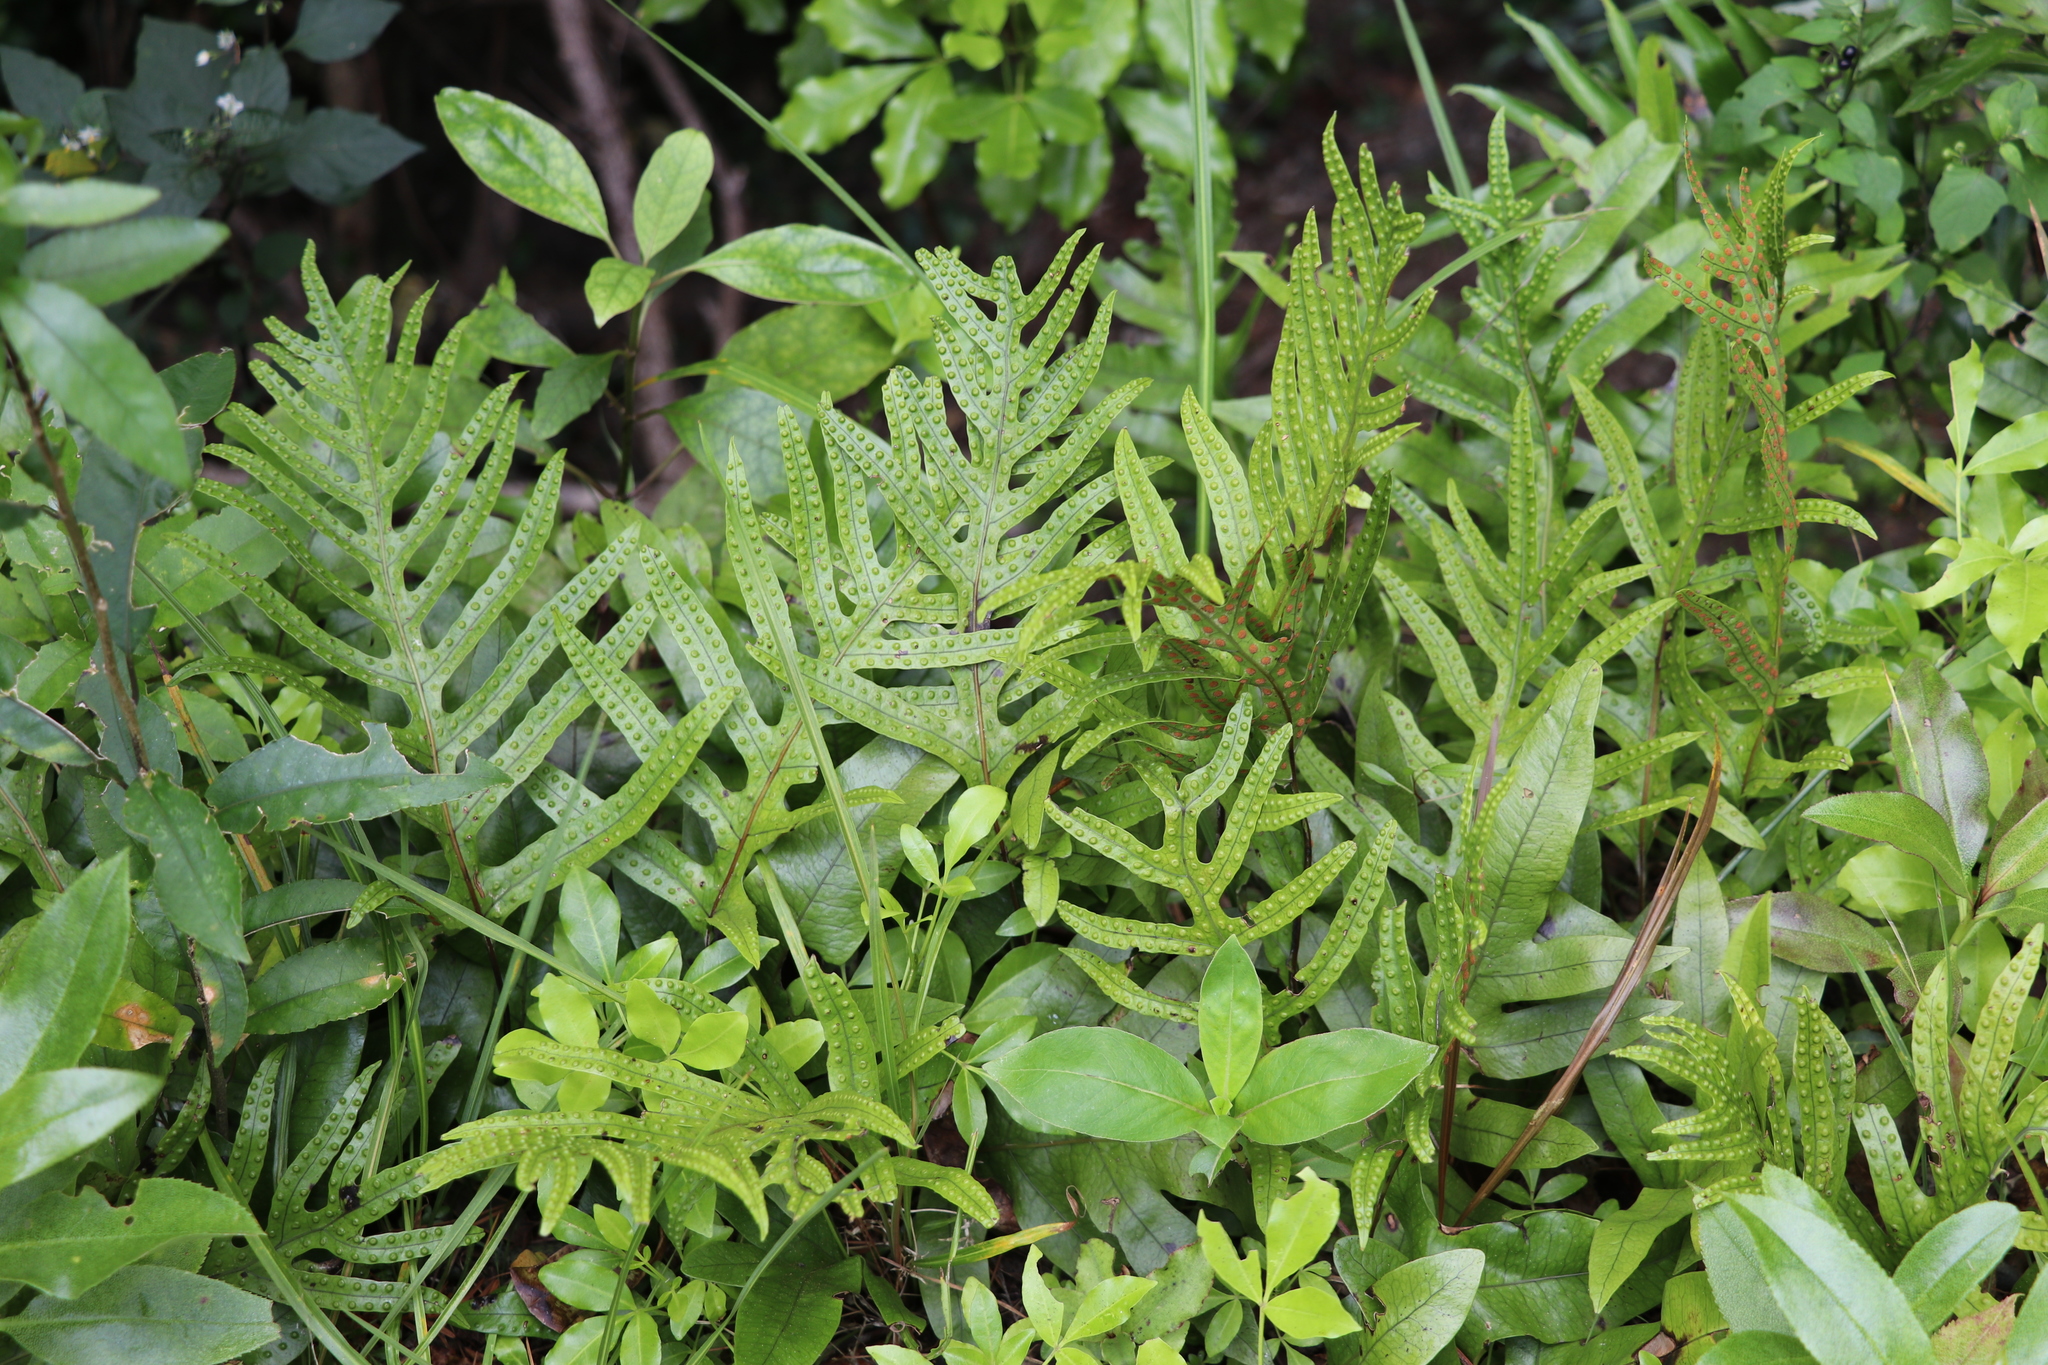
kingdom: Plantae
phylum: Tracheophyta
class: Polypodiopsida
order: Polypodiales
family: Polypodiaceae
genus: Lecanopteris
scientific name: Lecanopteris pustulata
